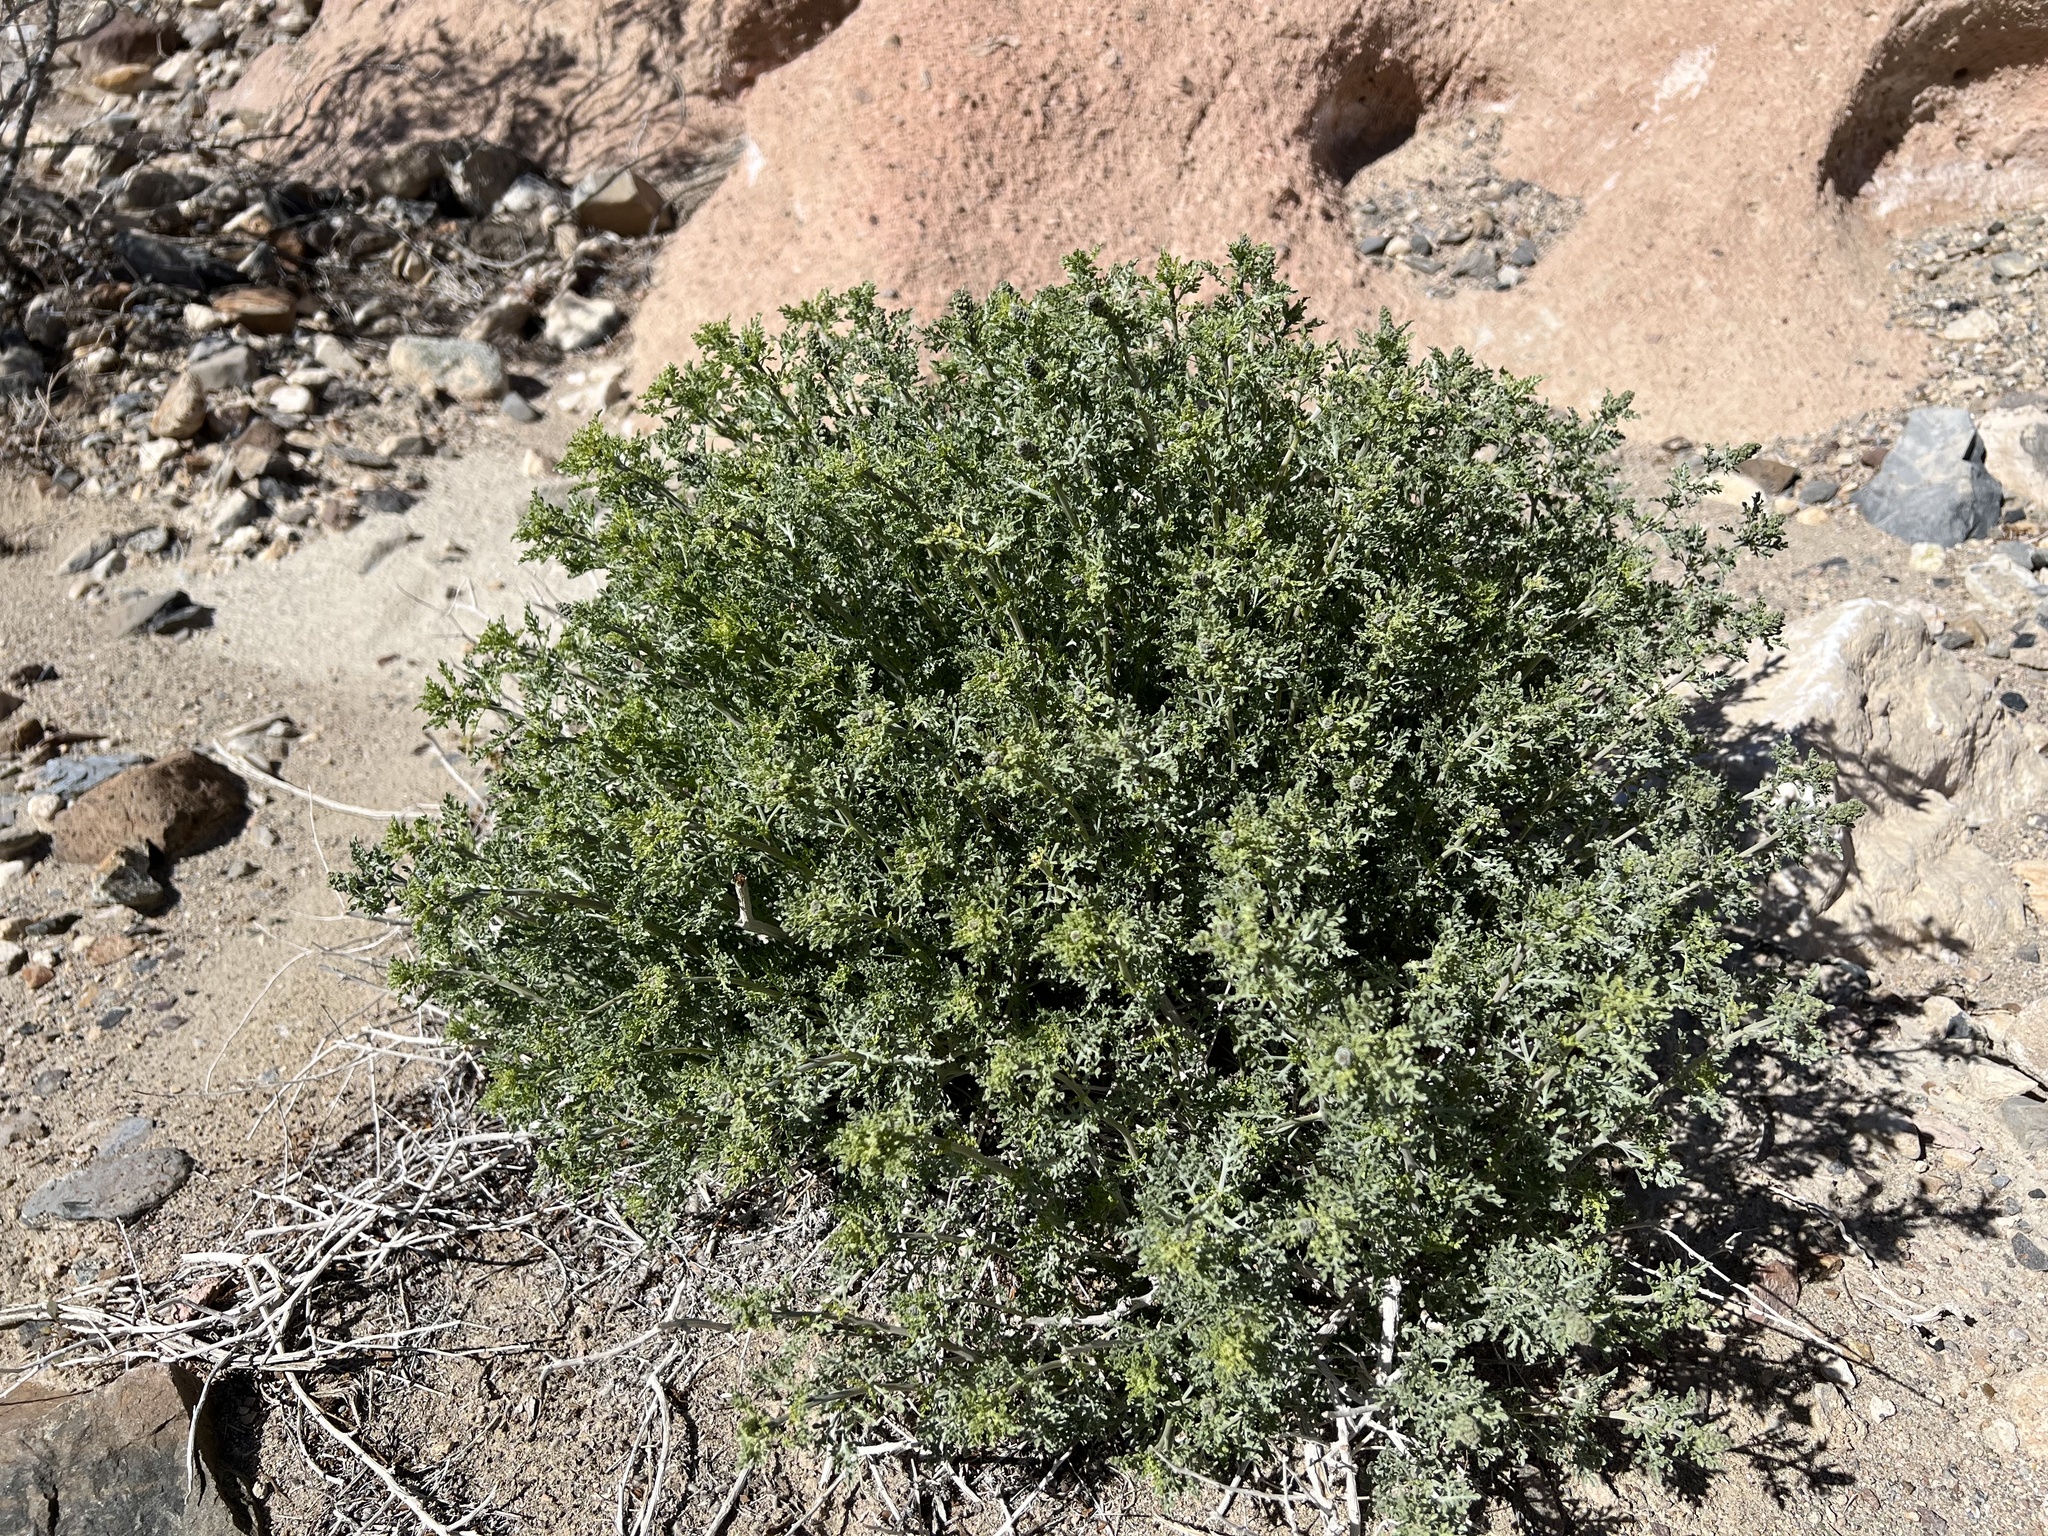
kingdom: Plantae
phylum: Tracheophyta
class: Magnoliopsida
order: Asterales
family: Asteraceae
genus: Ambrosia
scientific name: Ambrosia dumosa
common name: Bur-sage
